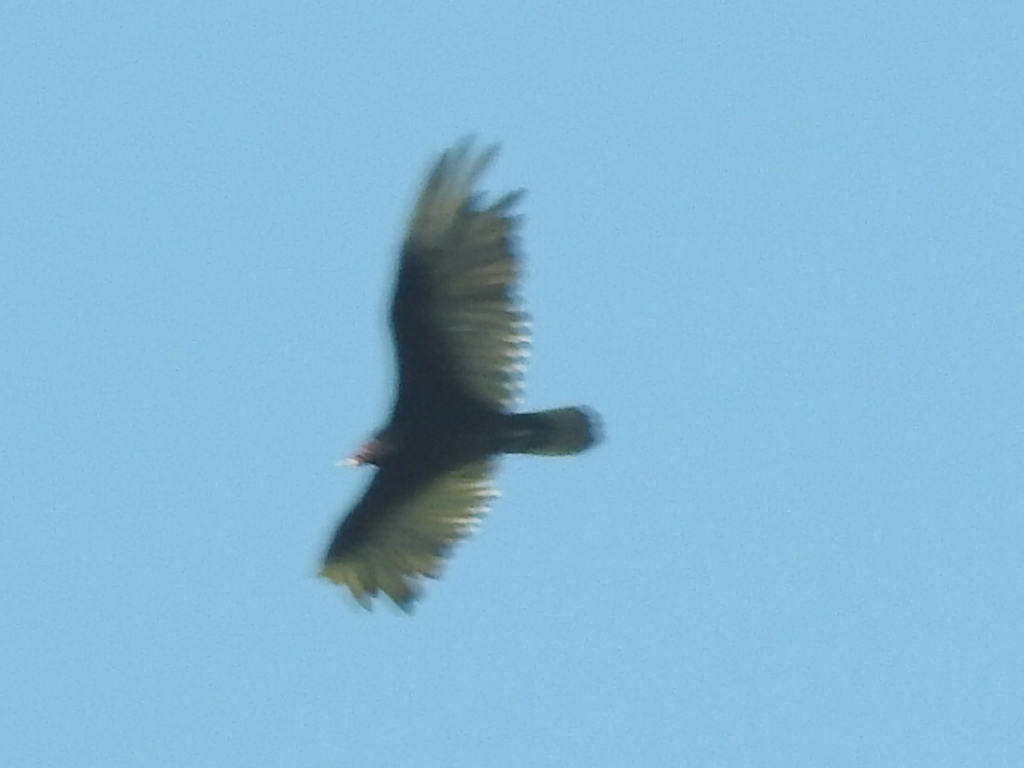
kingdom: Animalia
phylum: Chordata
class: Aves
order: Accipitriformes
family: Cathartidae
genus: Cathartes
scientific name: Cathartes aura
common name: Turkey vulture
